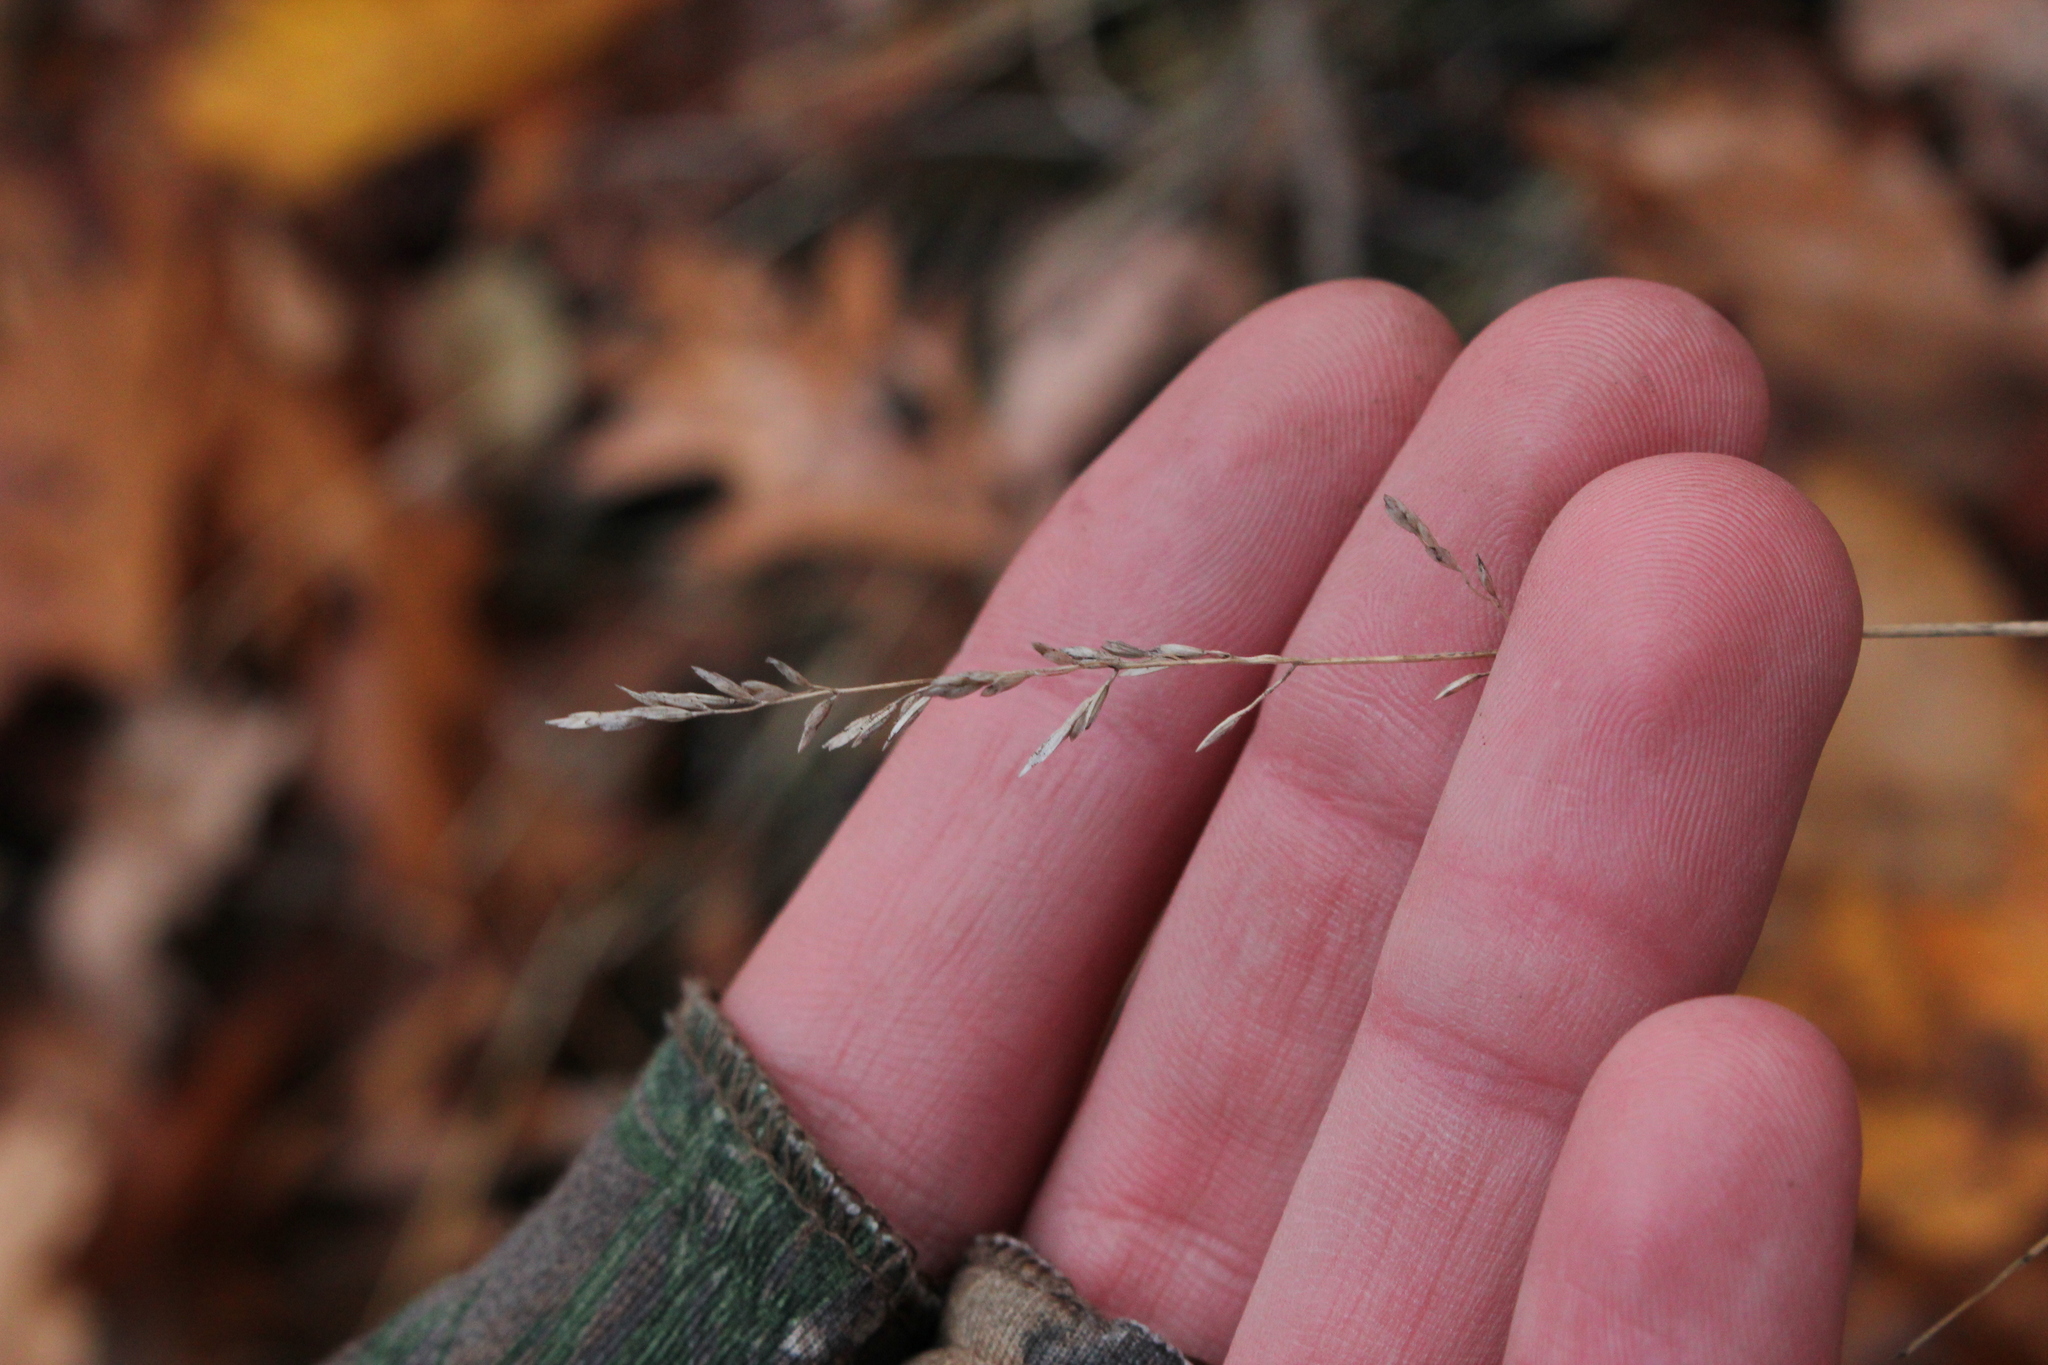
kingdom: Plantae
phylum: Tracheophyta
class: Liliopsida
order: Poales
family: Poaceae
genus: Poa
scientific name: Poa compressa
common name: Canada bluegrass
